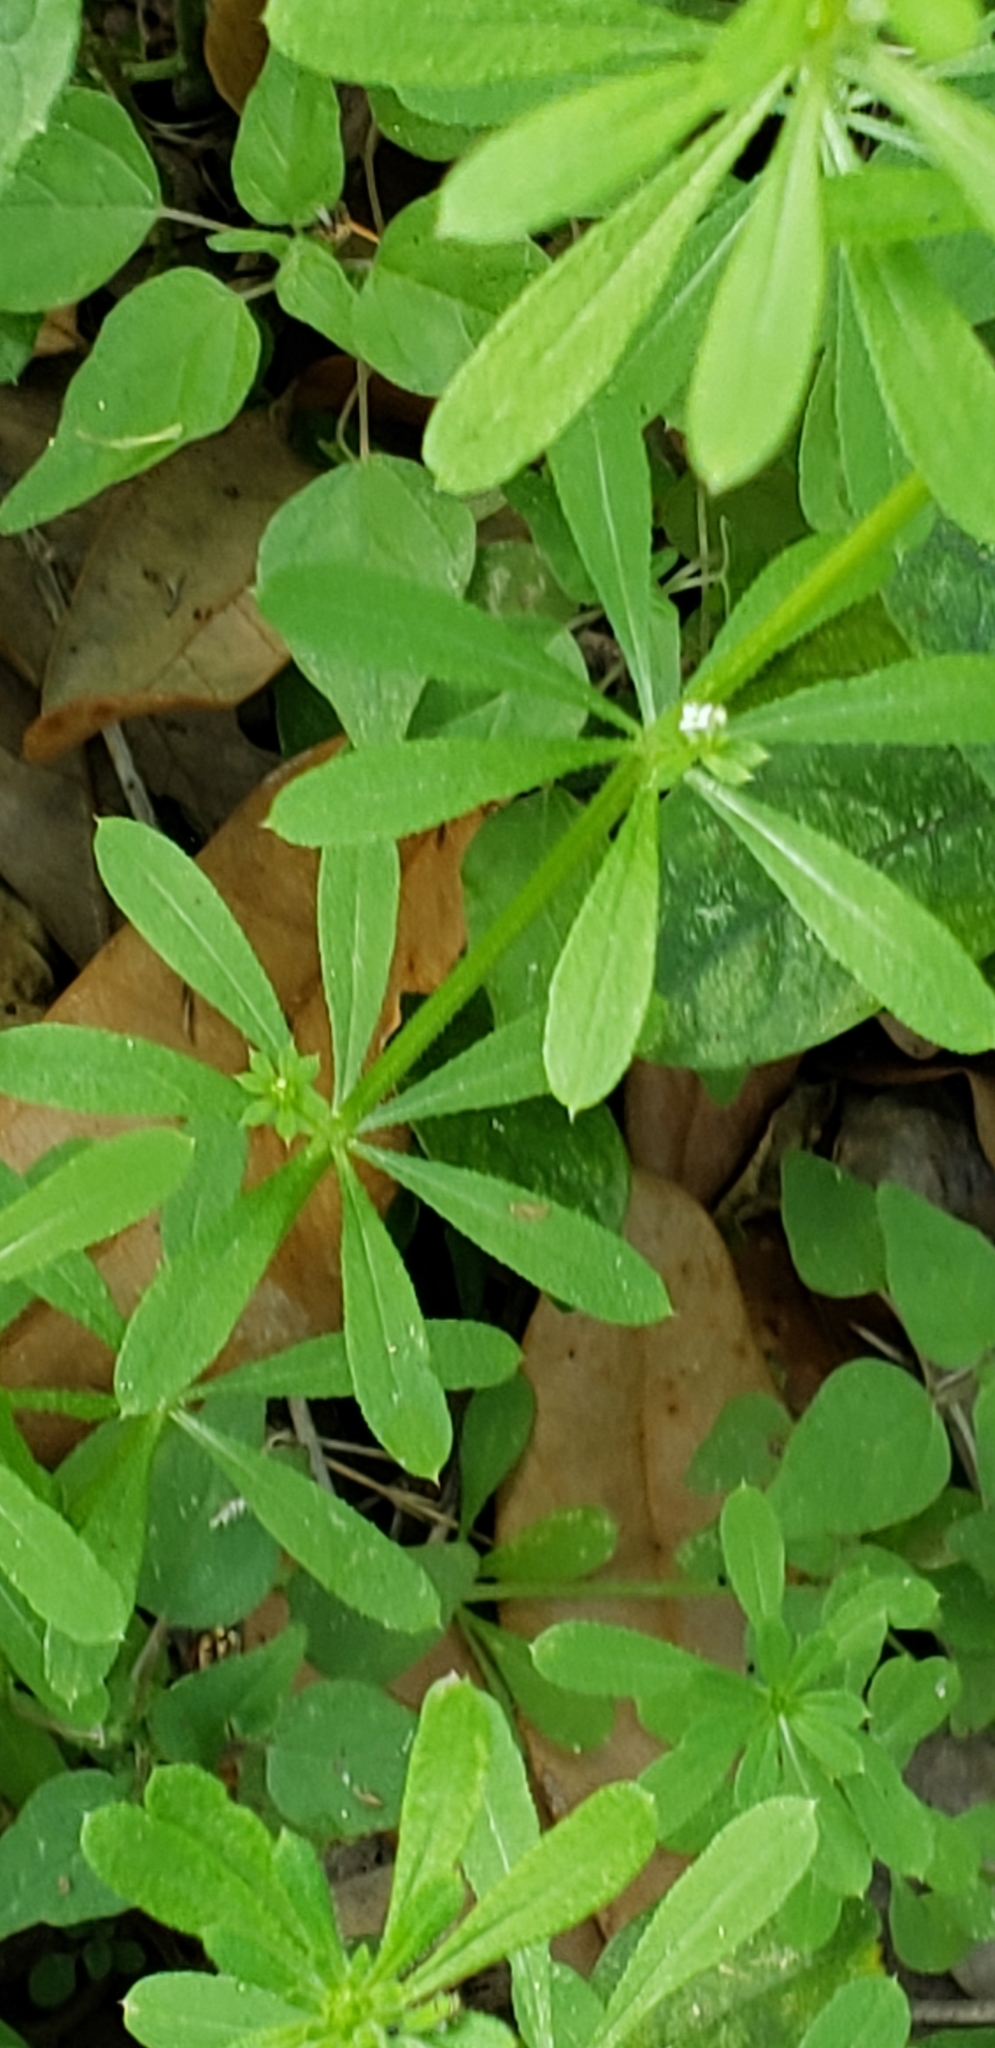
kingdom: Plantae
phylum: Tracheophyta
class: Magnoliopsida
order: Gentianales
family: Rubiaceae
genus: Galium
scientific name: Galium aparine
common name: Cleavers
